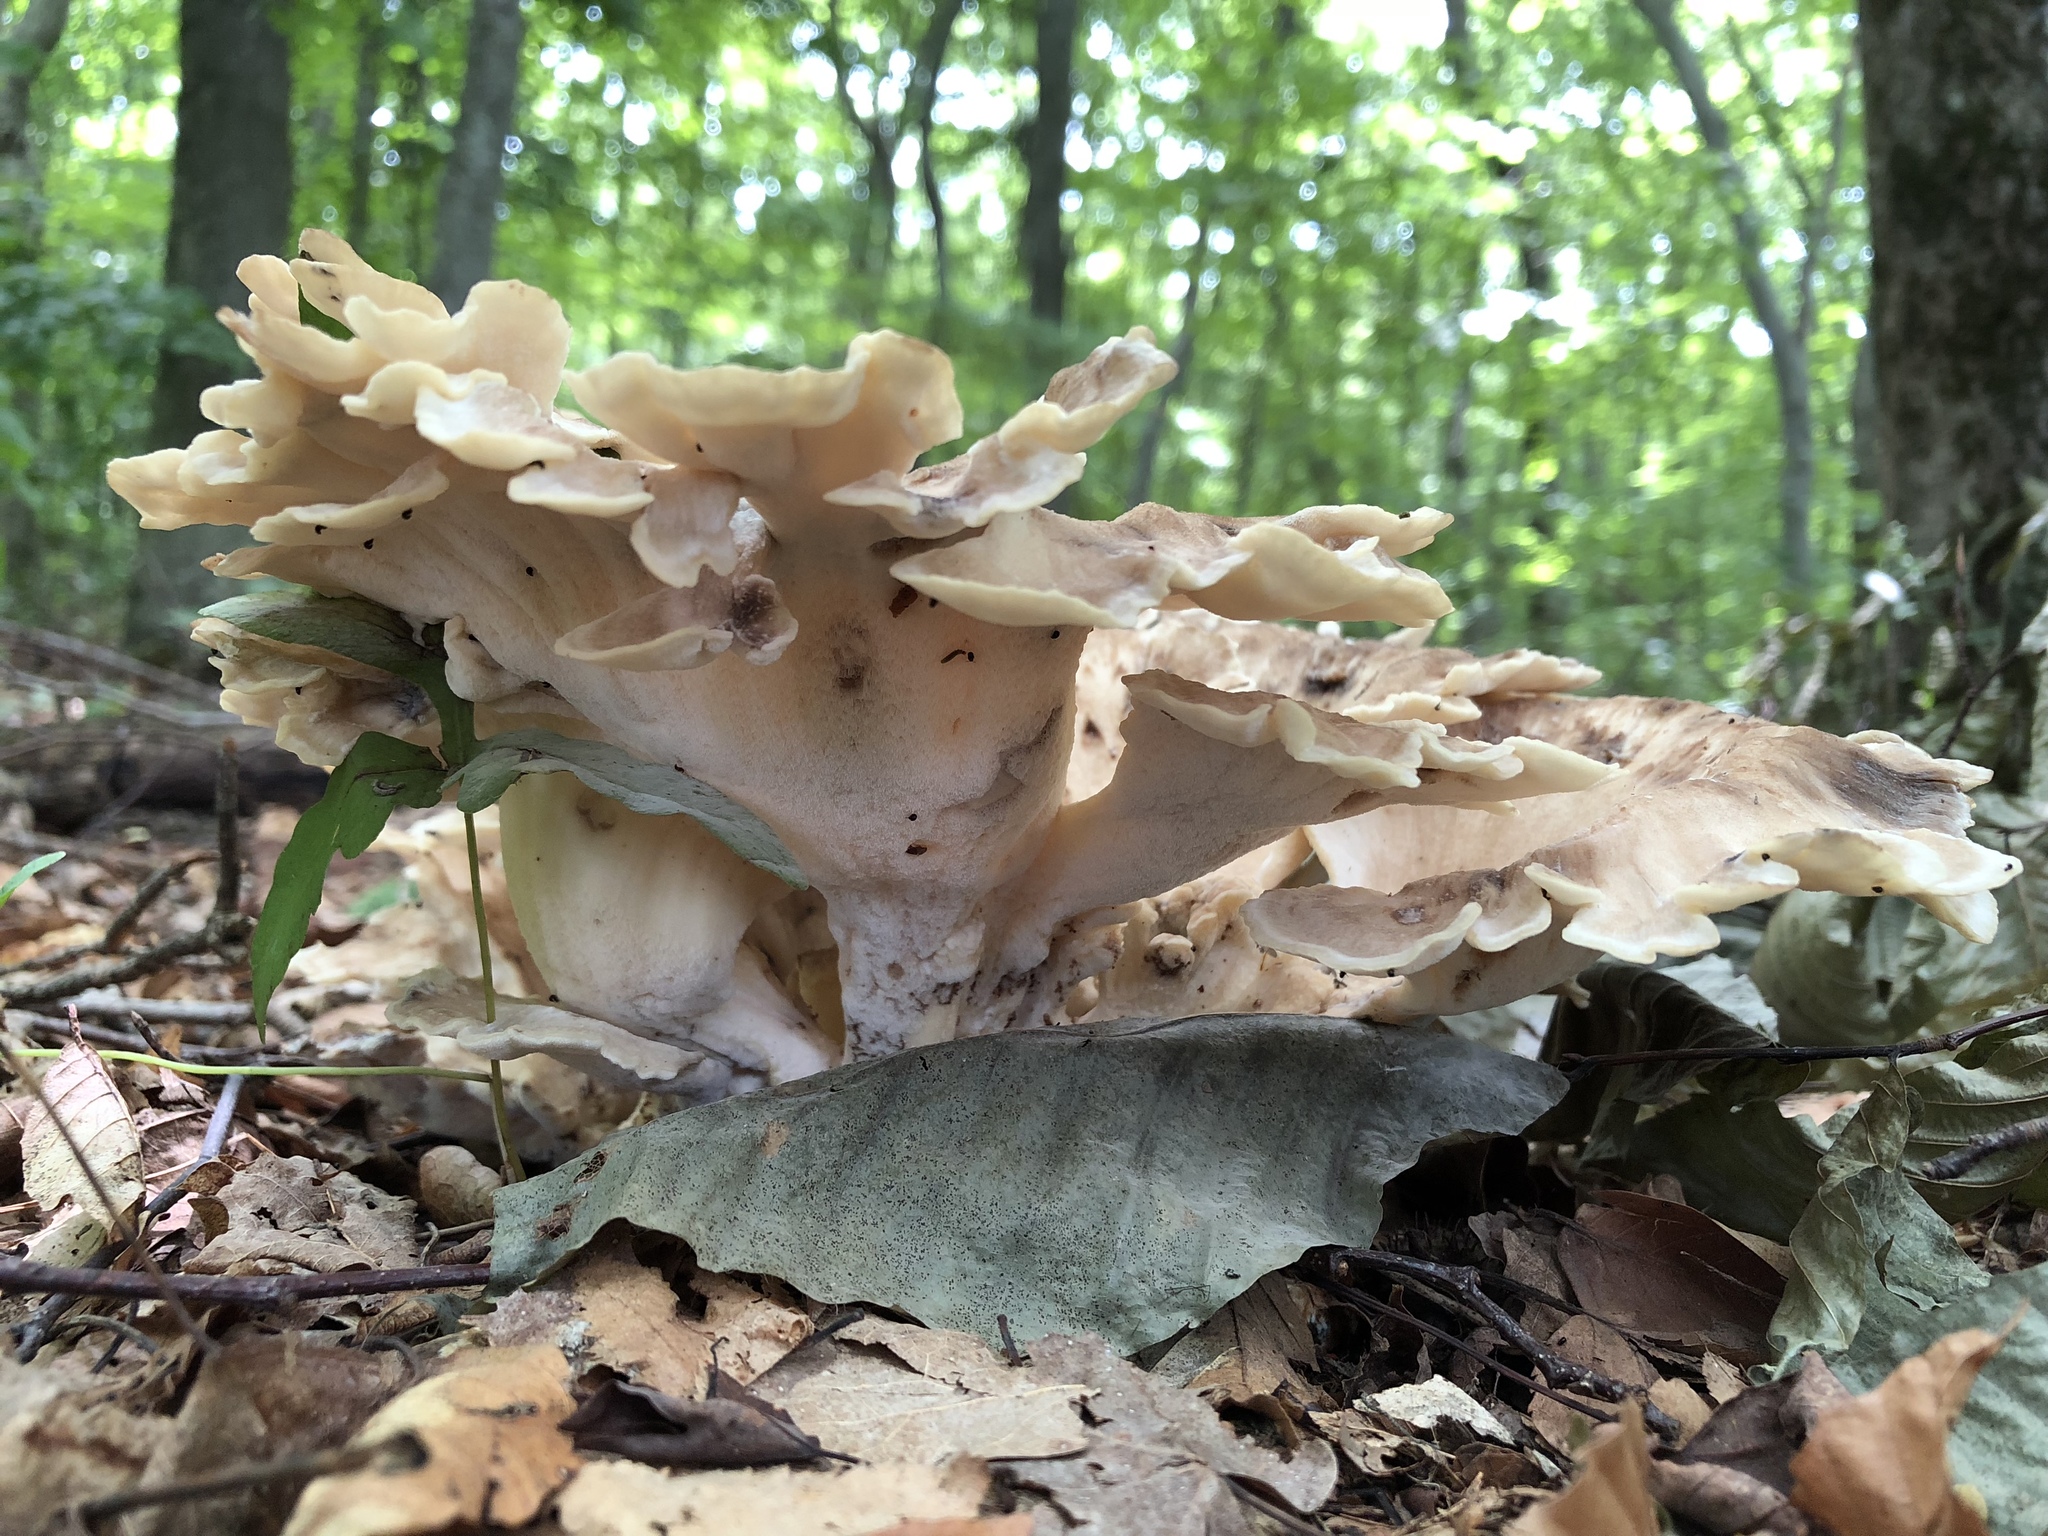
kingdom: Fungi
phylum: Basidiomycota
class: Agaricomycetes
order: Polyporales
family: Meripilaceae
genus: Meripilus
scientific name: Meripilus sumstinei
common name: Black-staining polypore
